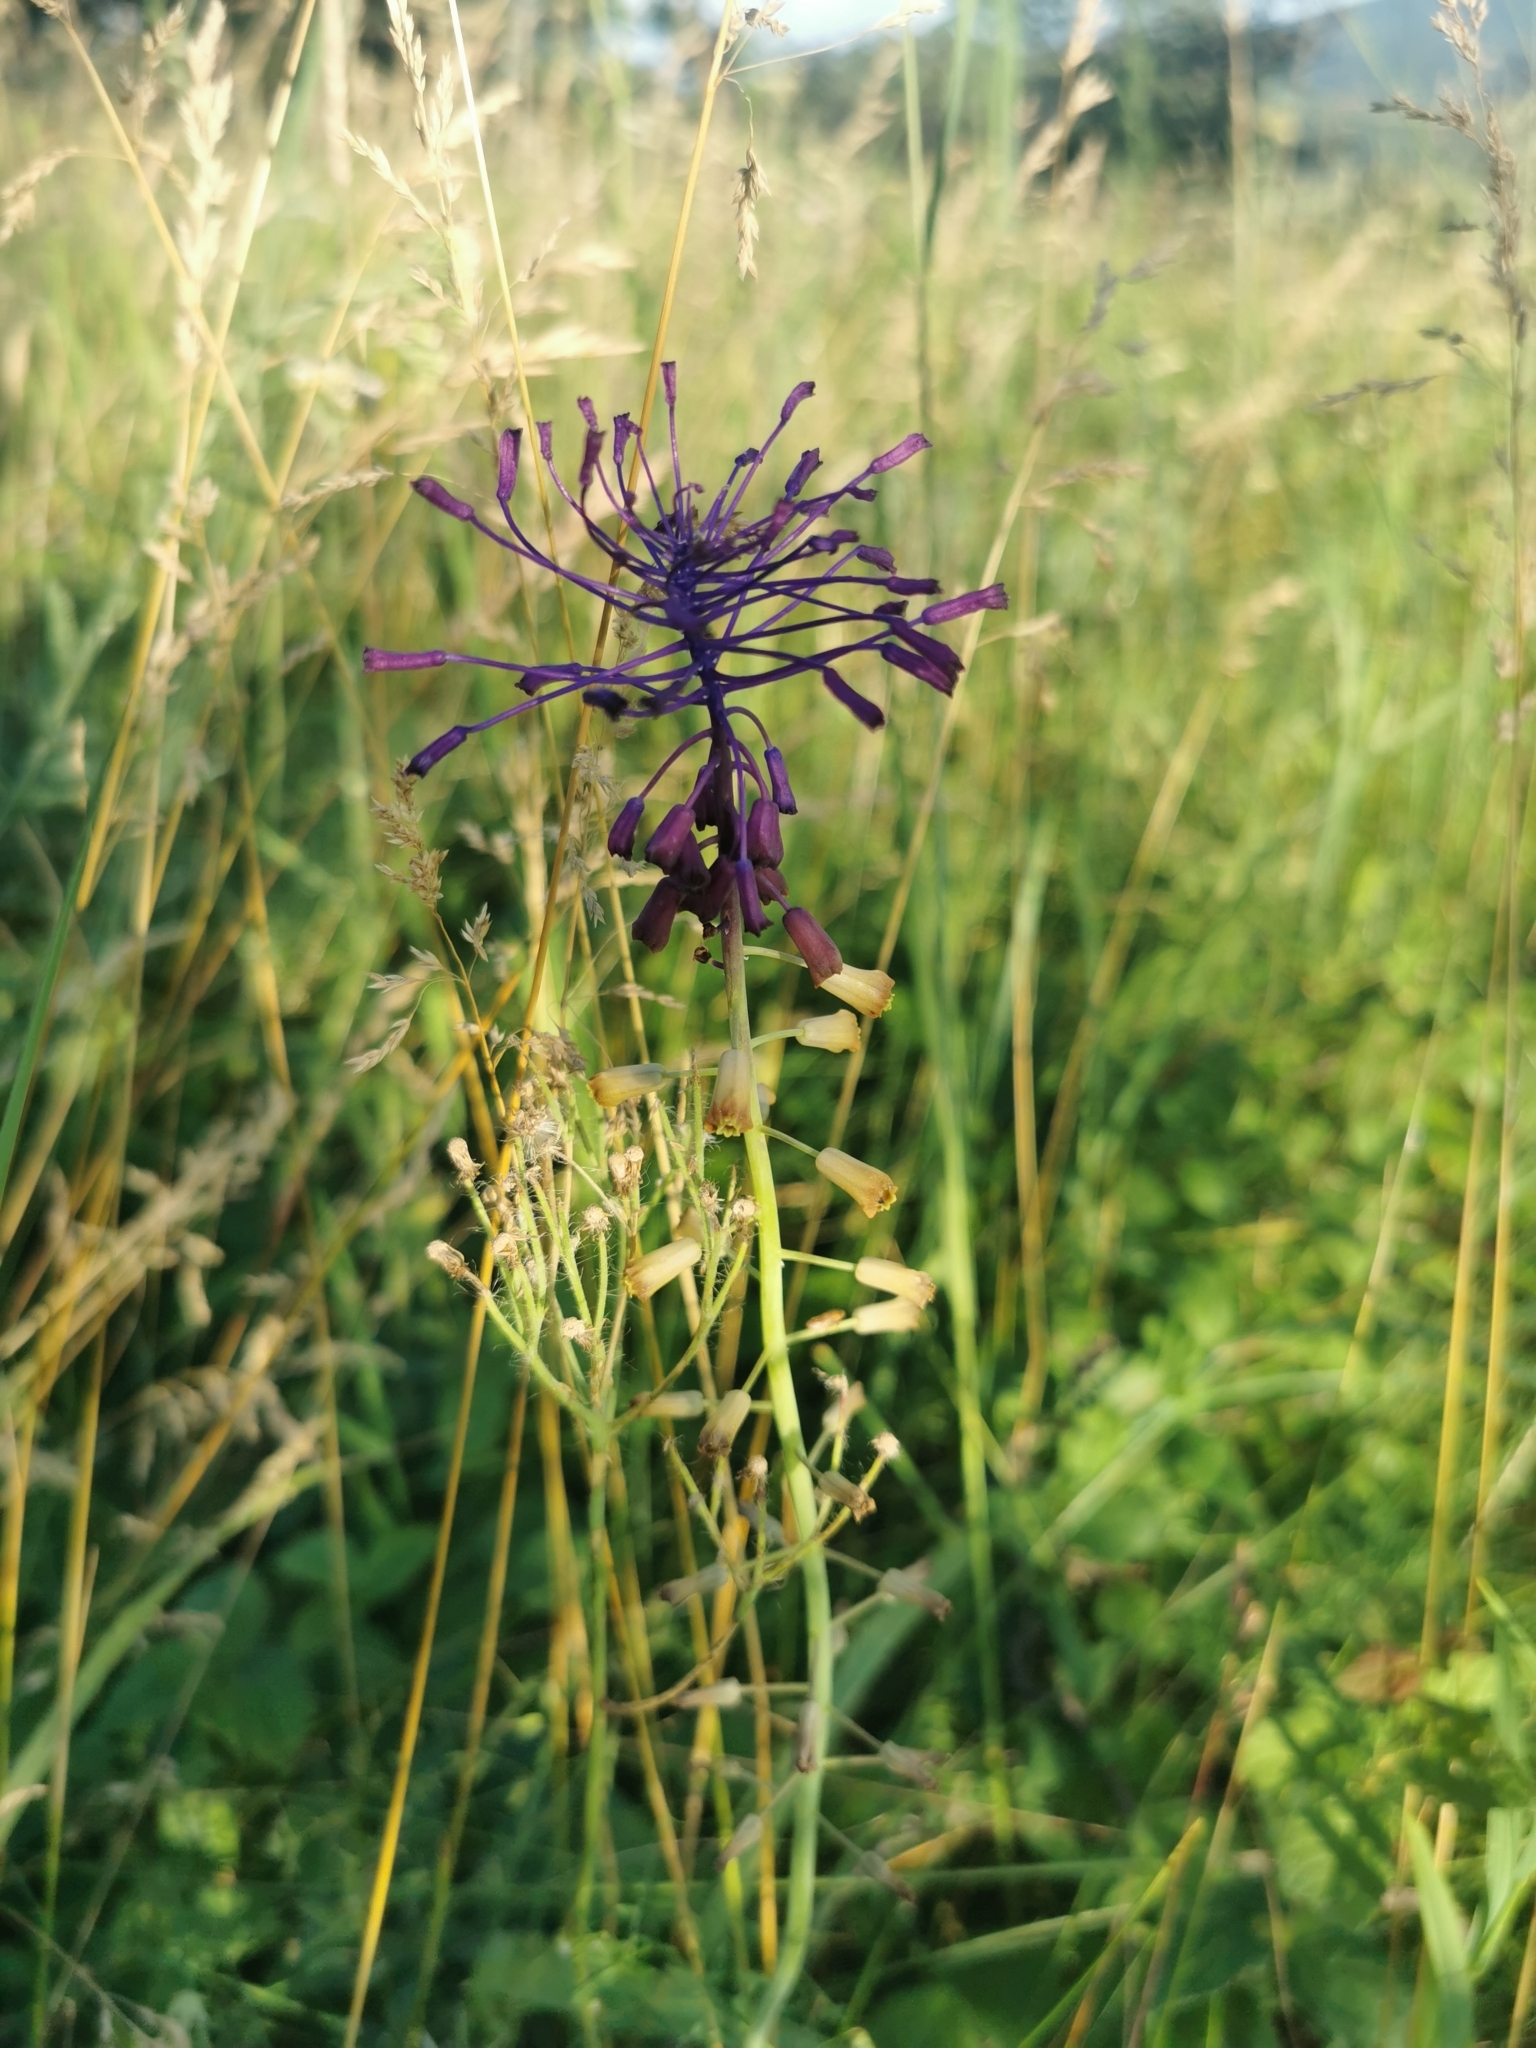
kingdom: Plantae
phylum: Tracheophyta
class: Liliopsida
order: Asparagales
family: Asparagaceae
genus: Muscari
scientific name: Muscari comosum
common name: Tassel hyacinth
